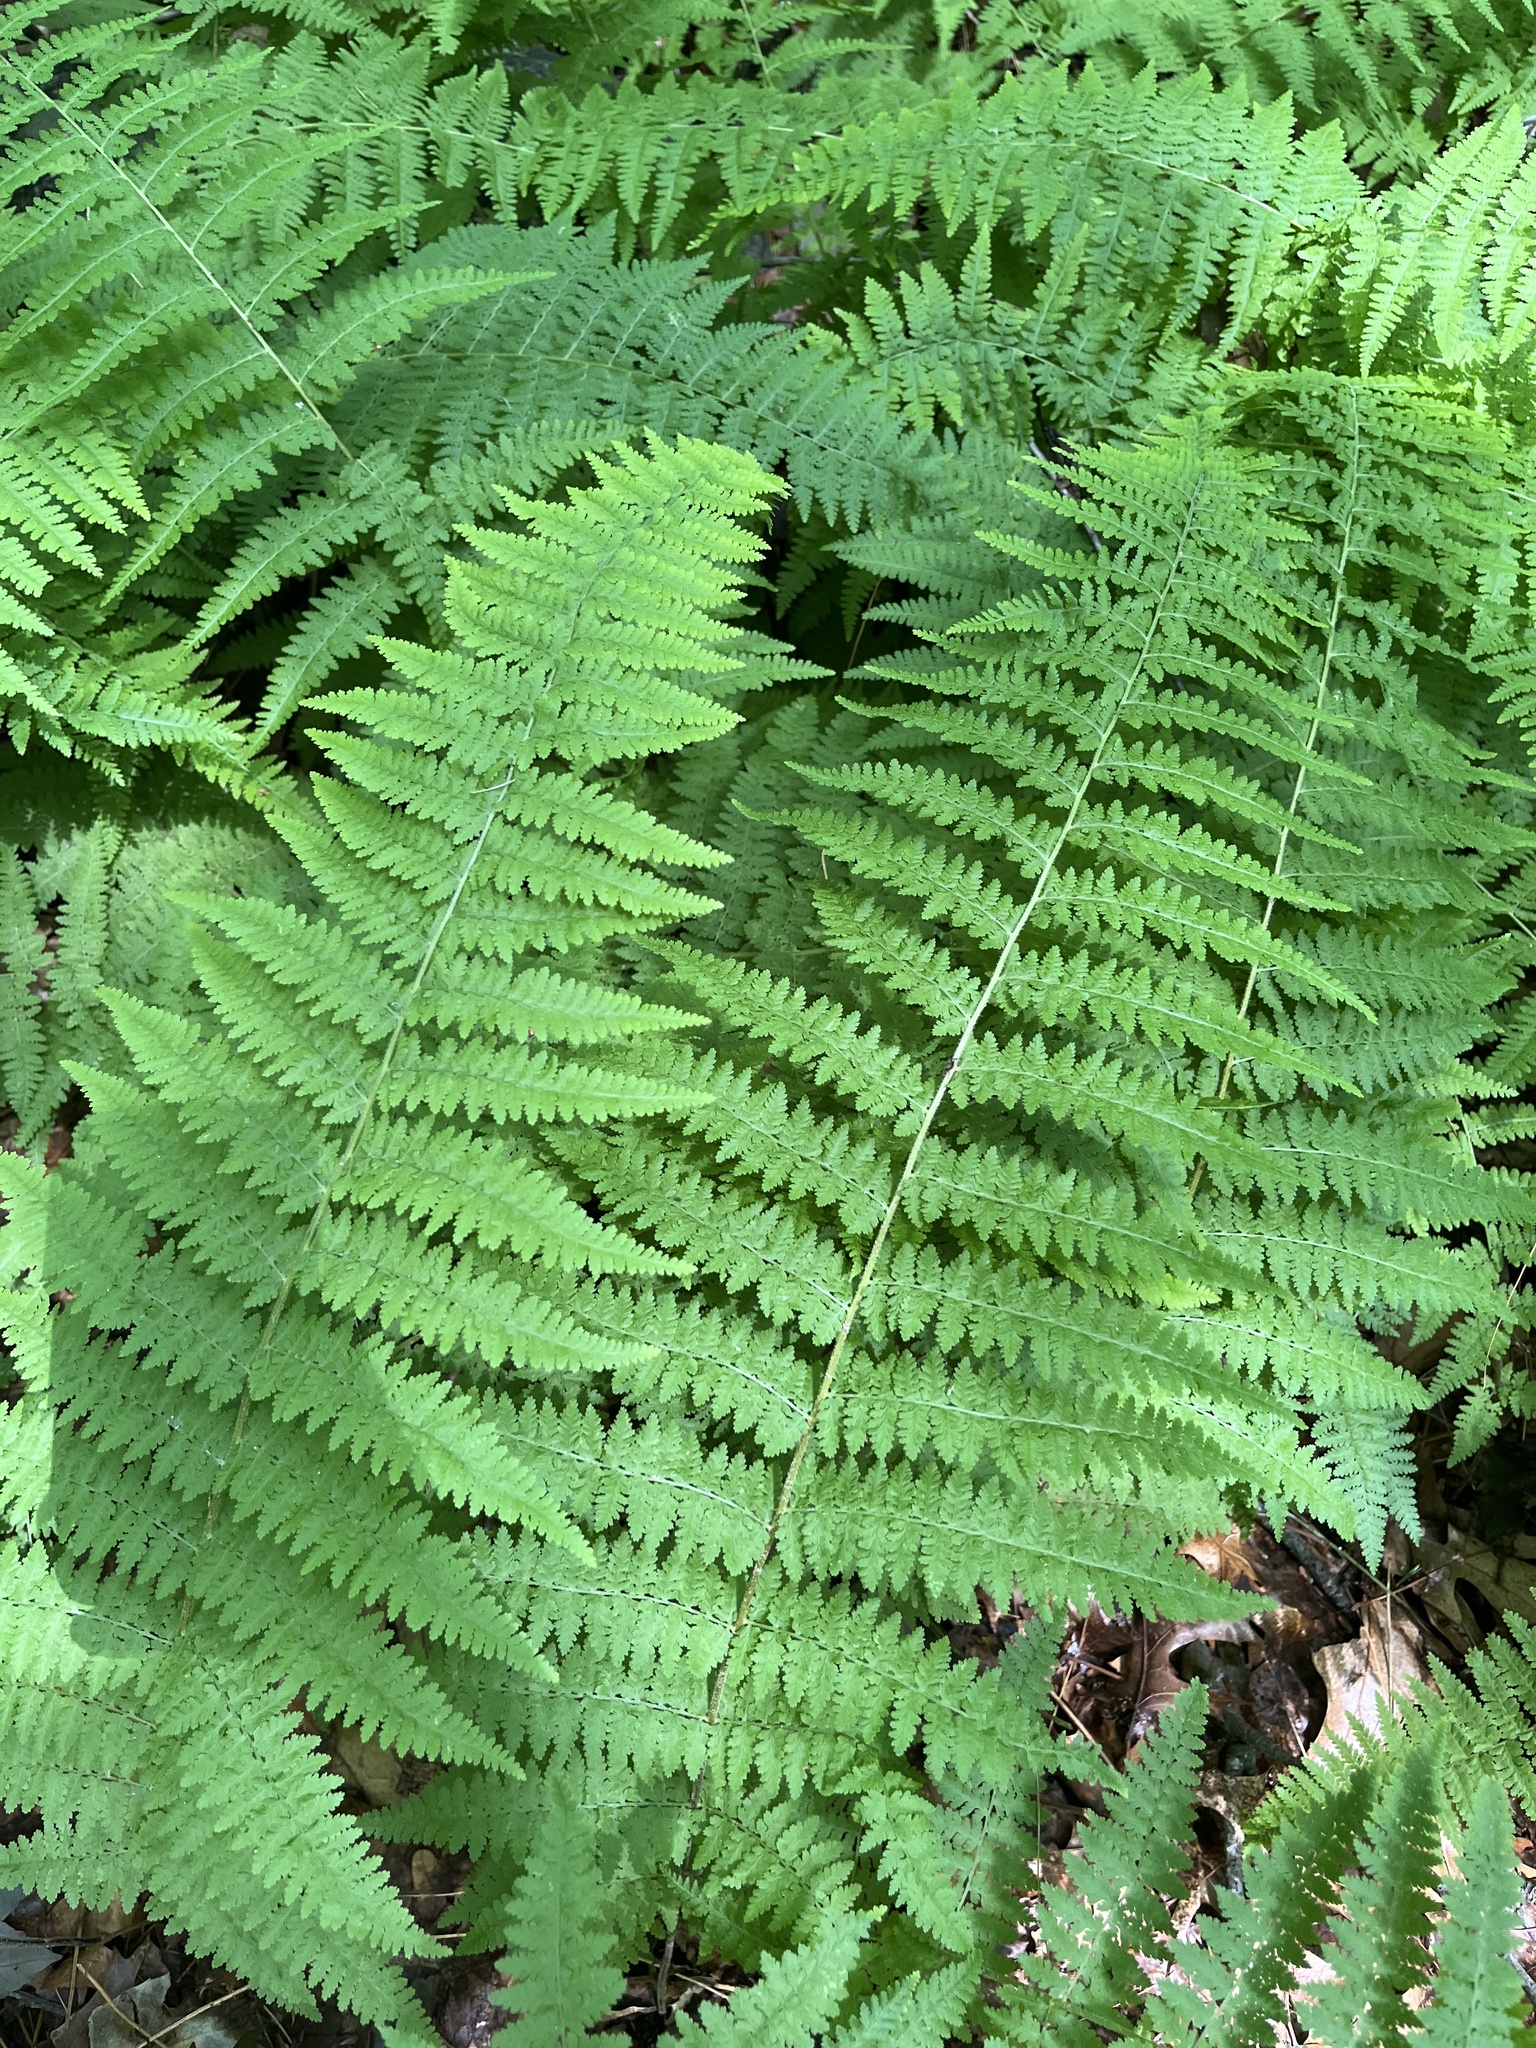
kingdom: Plantae
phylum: Tracheophyta
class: Polypodiopsida
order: Polypodiales
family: Dennstaedtiaceae
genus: Sitobolium
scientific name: Sitobolium punctilobum
